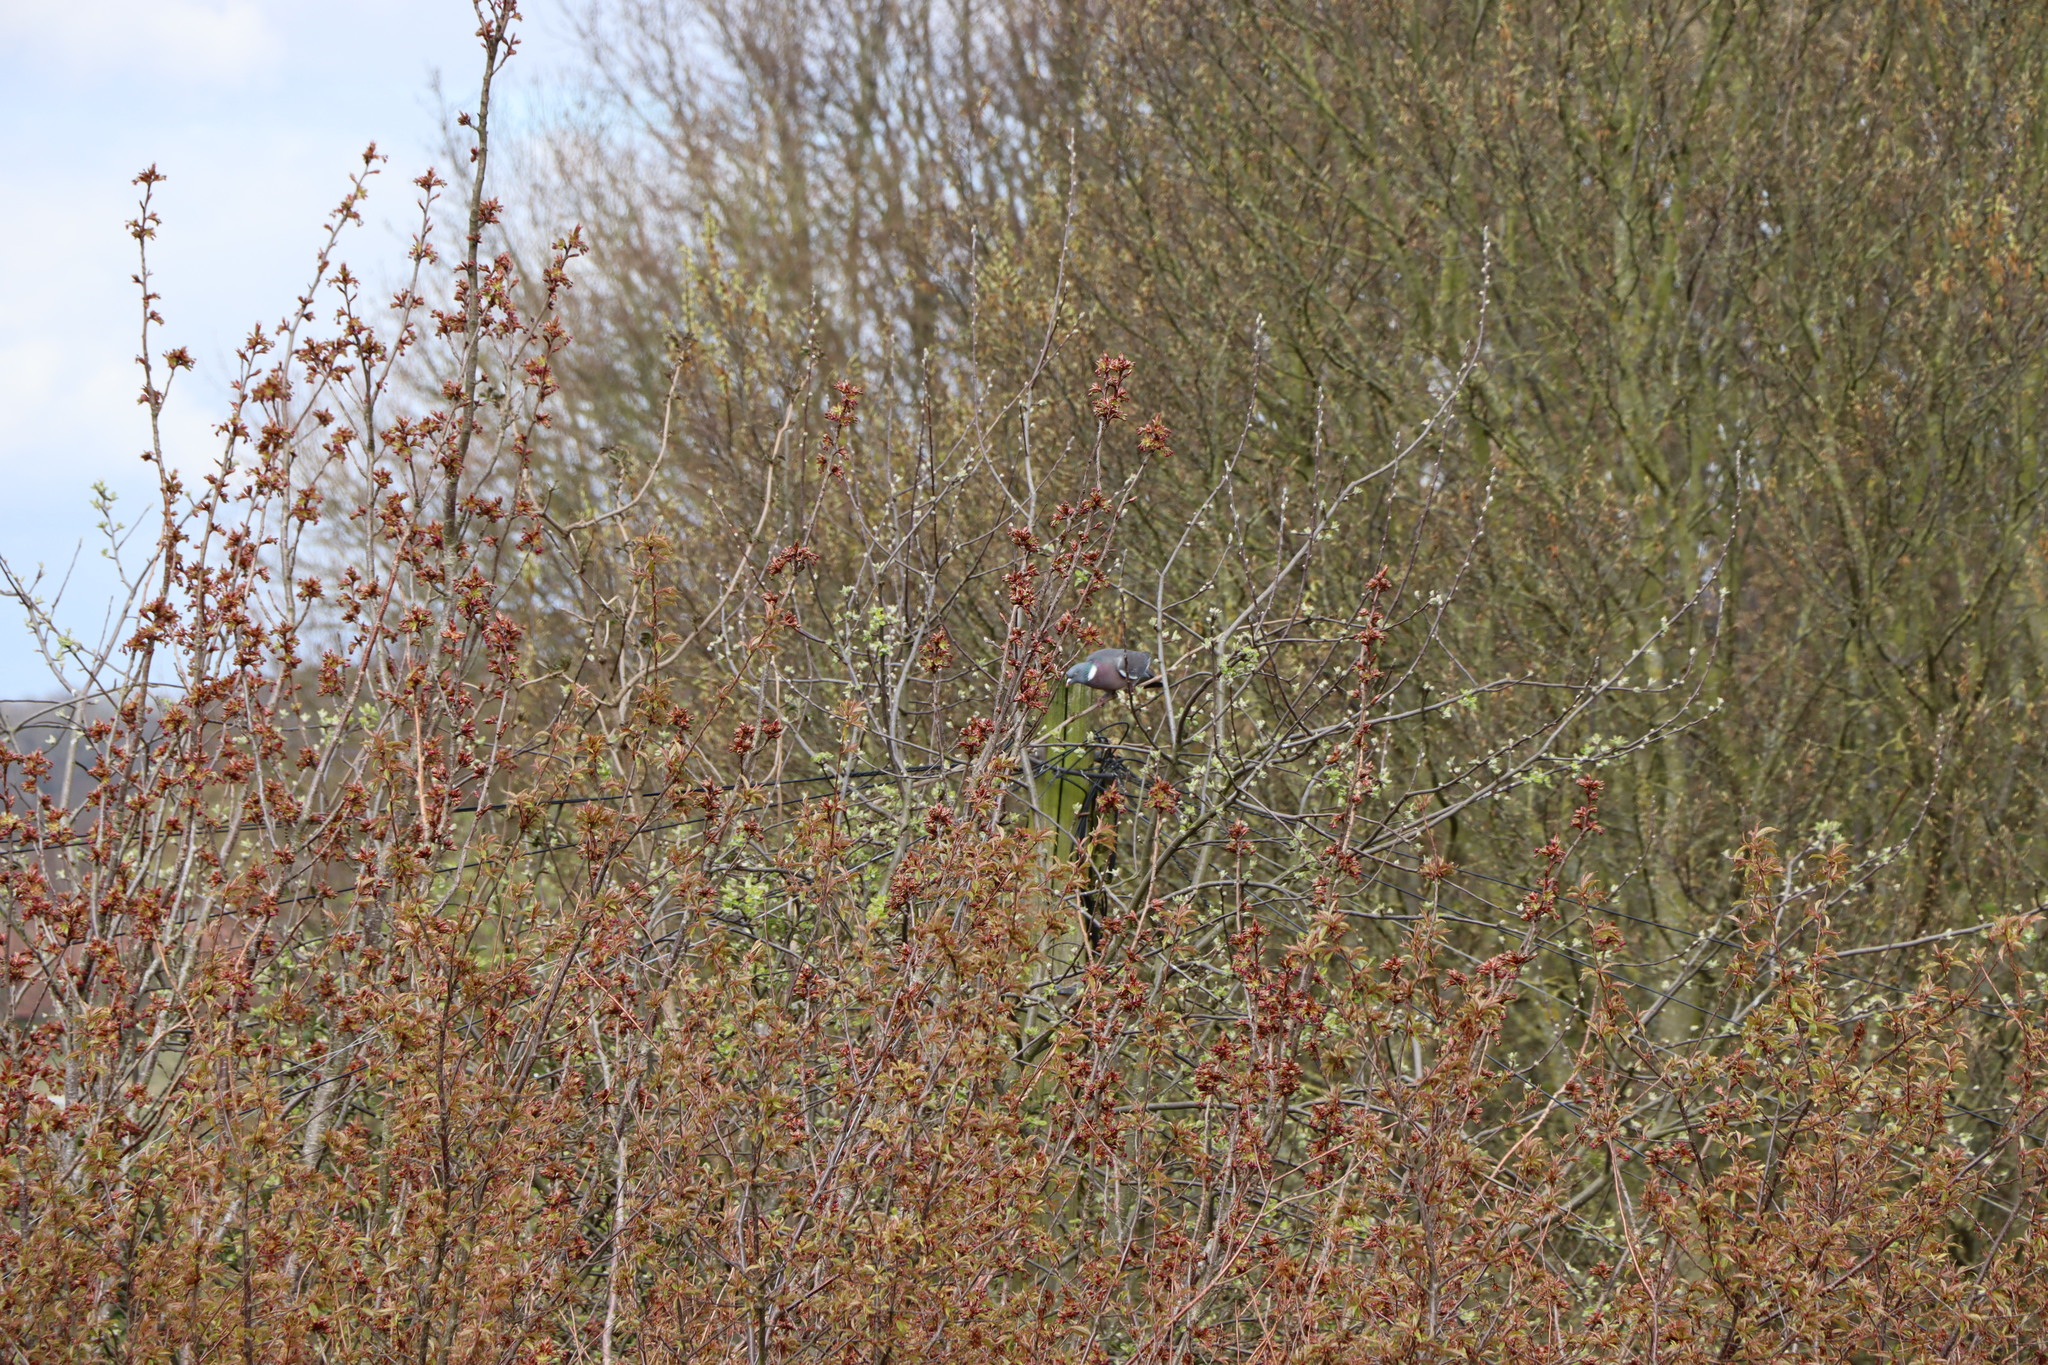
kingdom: Animalia
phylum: Chordata
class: Aves
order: Columbiformes
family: Columbidae
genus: Columba
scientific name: Columba palumbus
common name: Common wood pigeon
